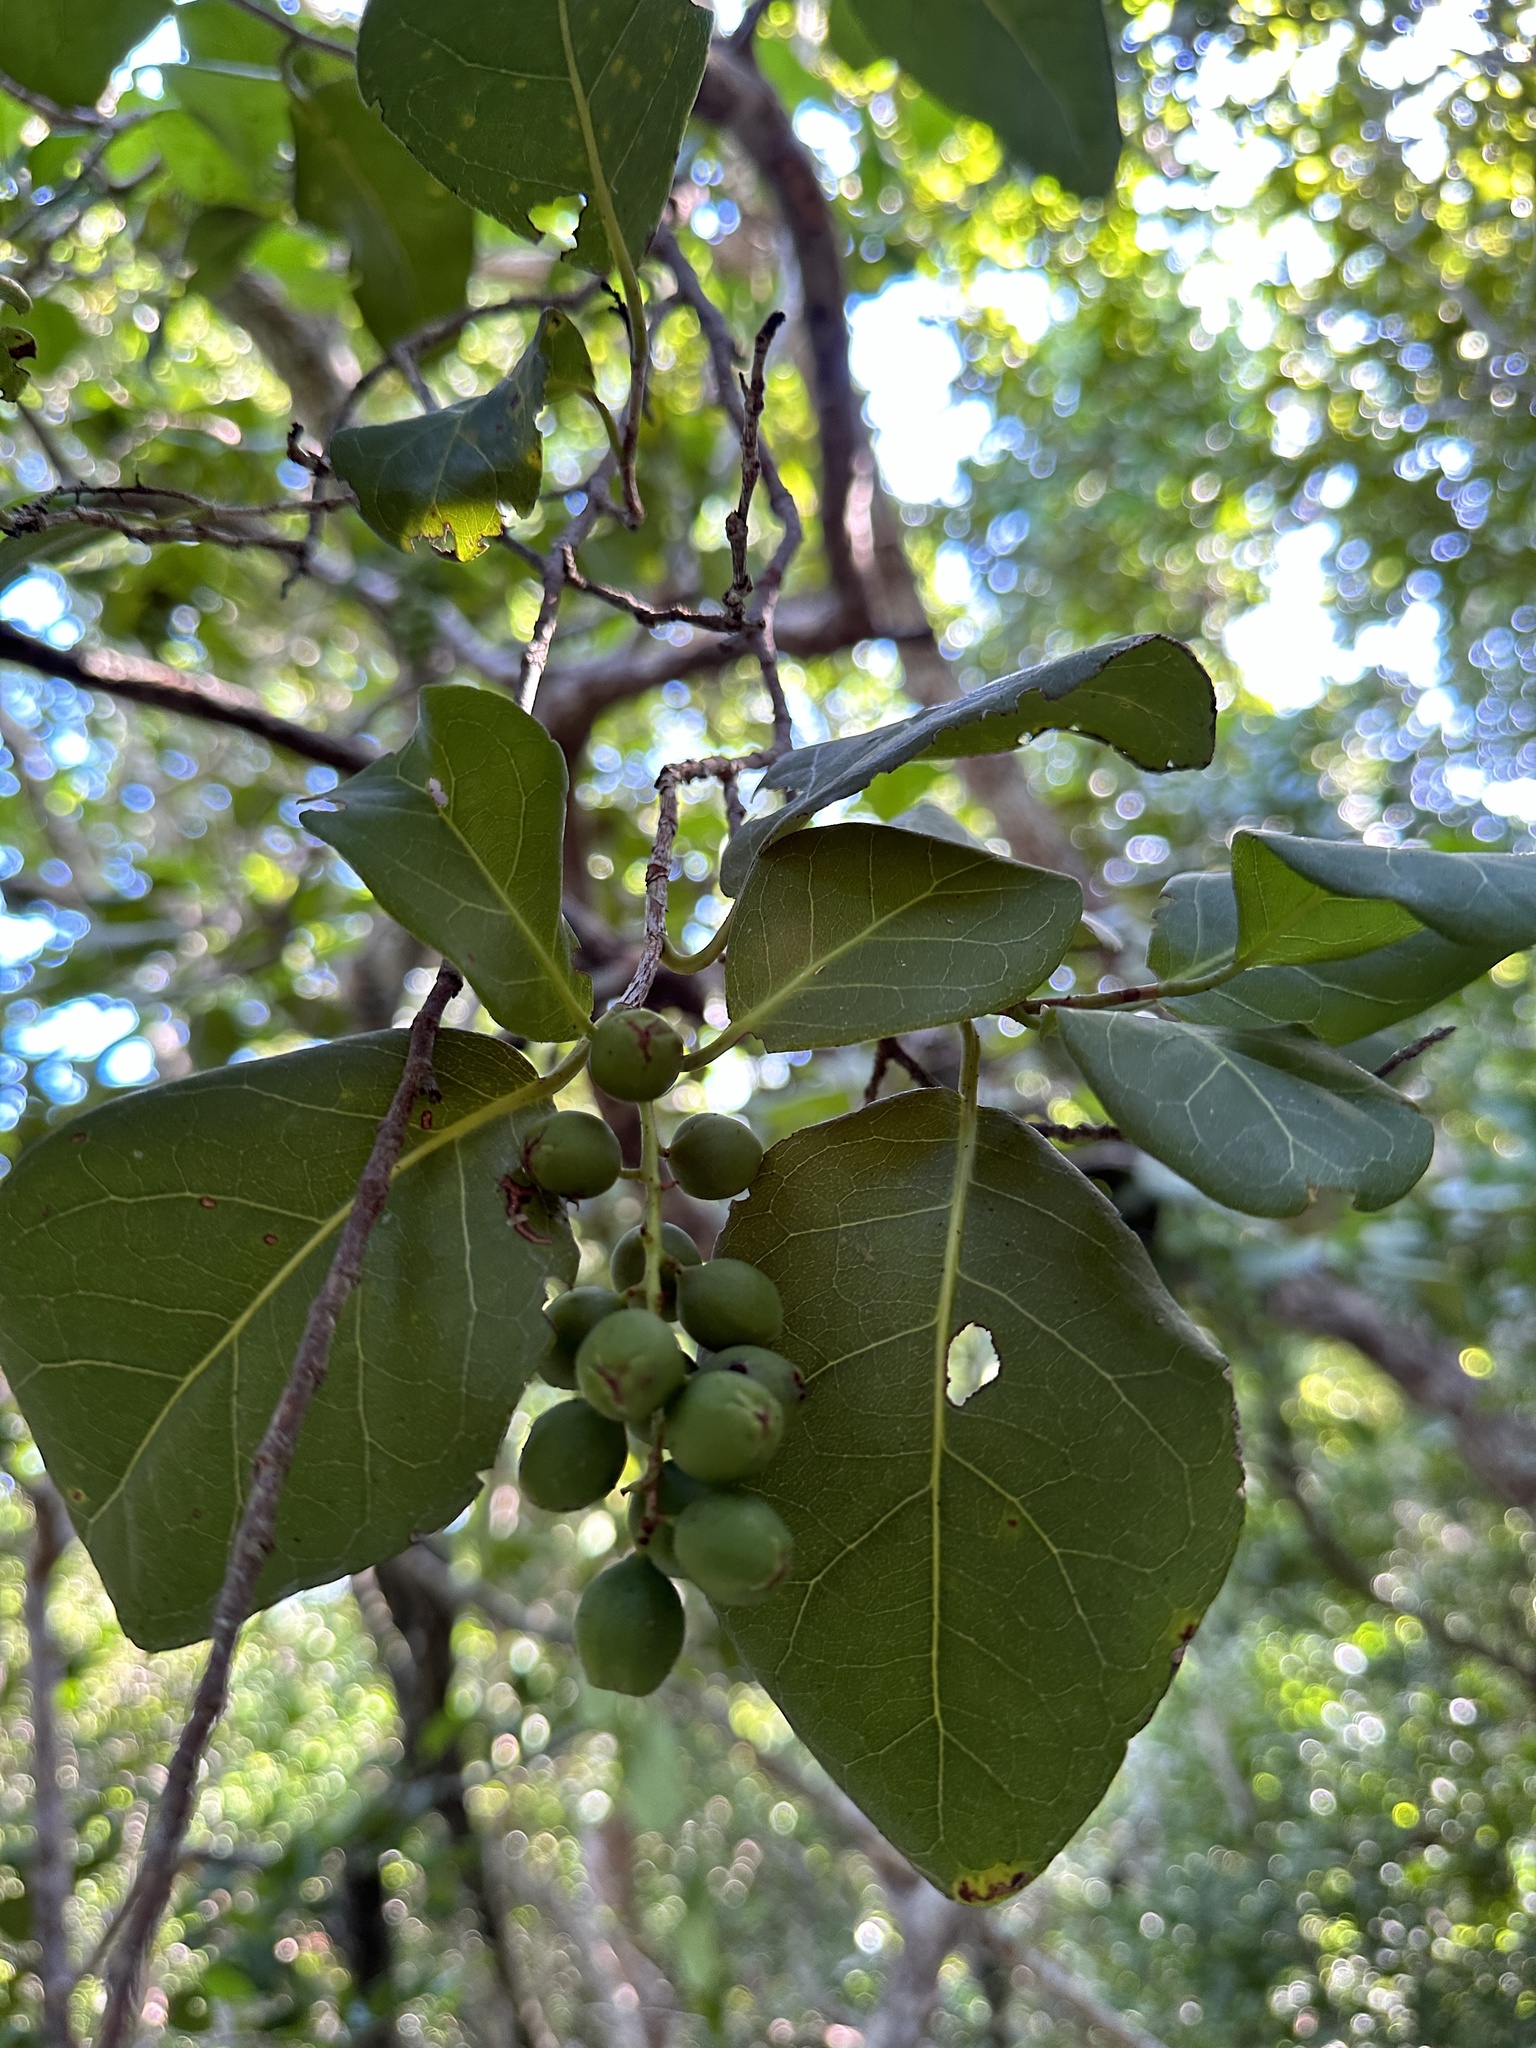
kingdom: Plantae
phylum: Tracheophyta
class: Magnoliopsida
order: Caryophyllales
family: Polygonaceae
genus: Coccoloba
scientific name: Coccoloba diversifolia
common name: Pigeon-plum
